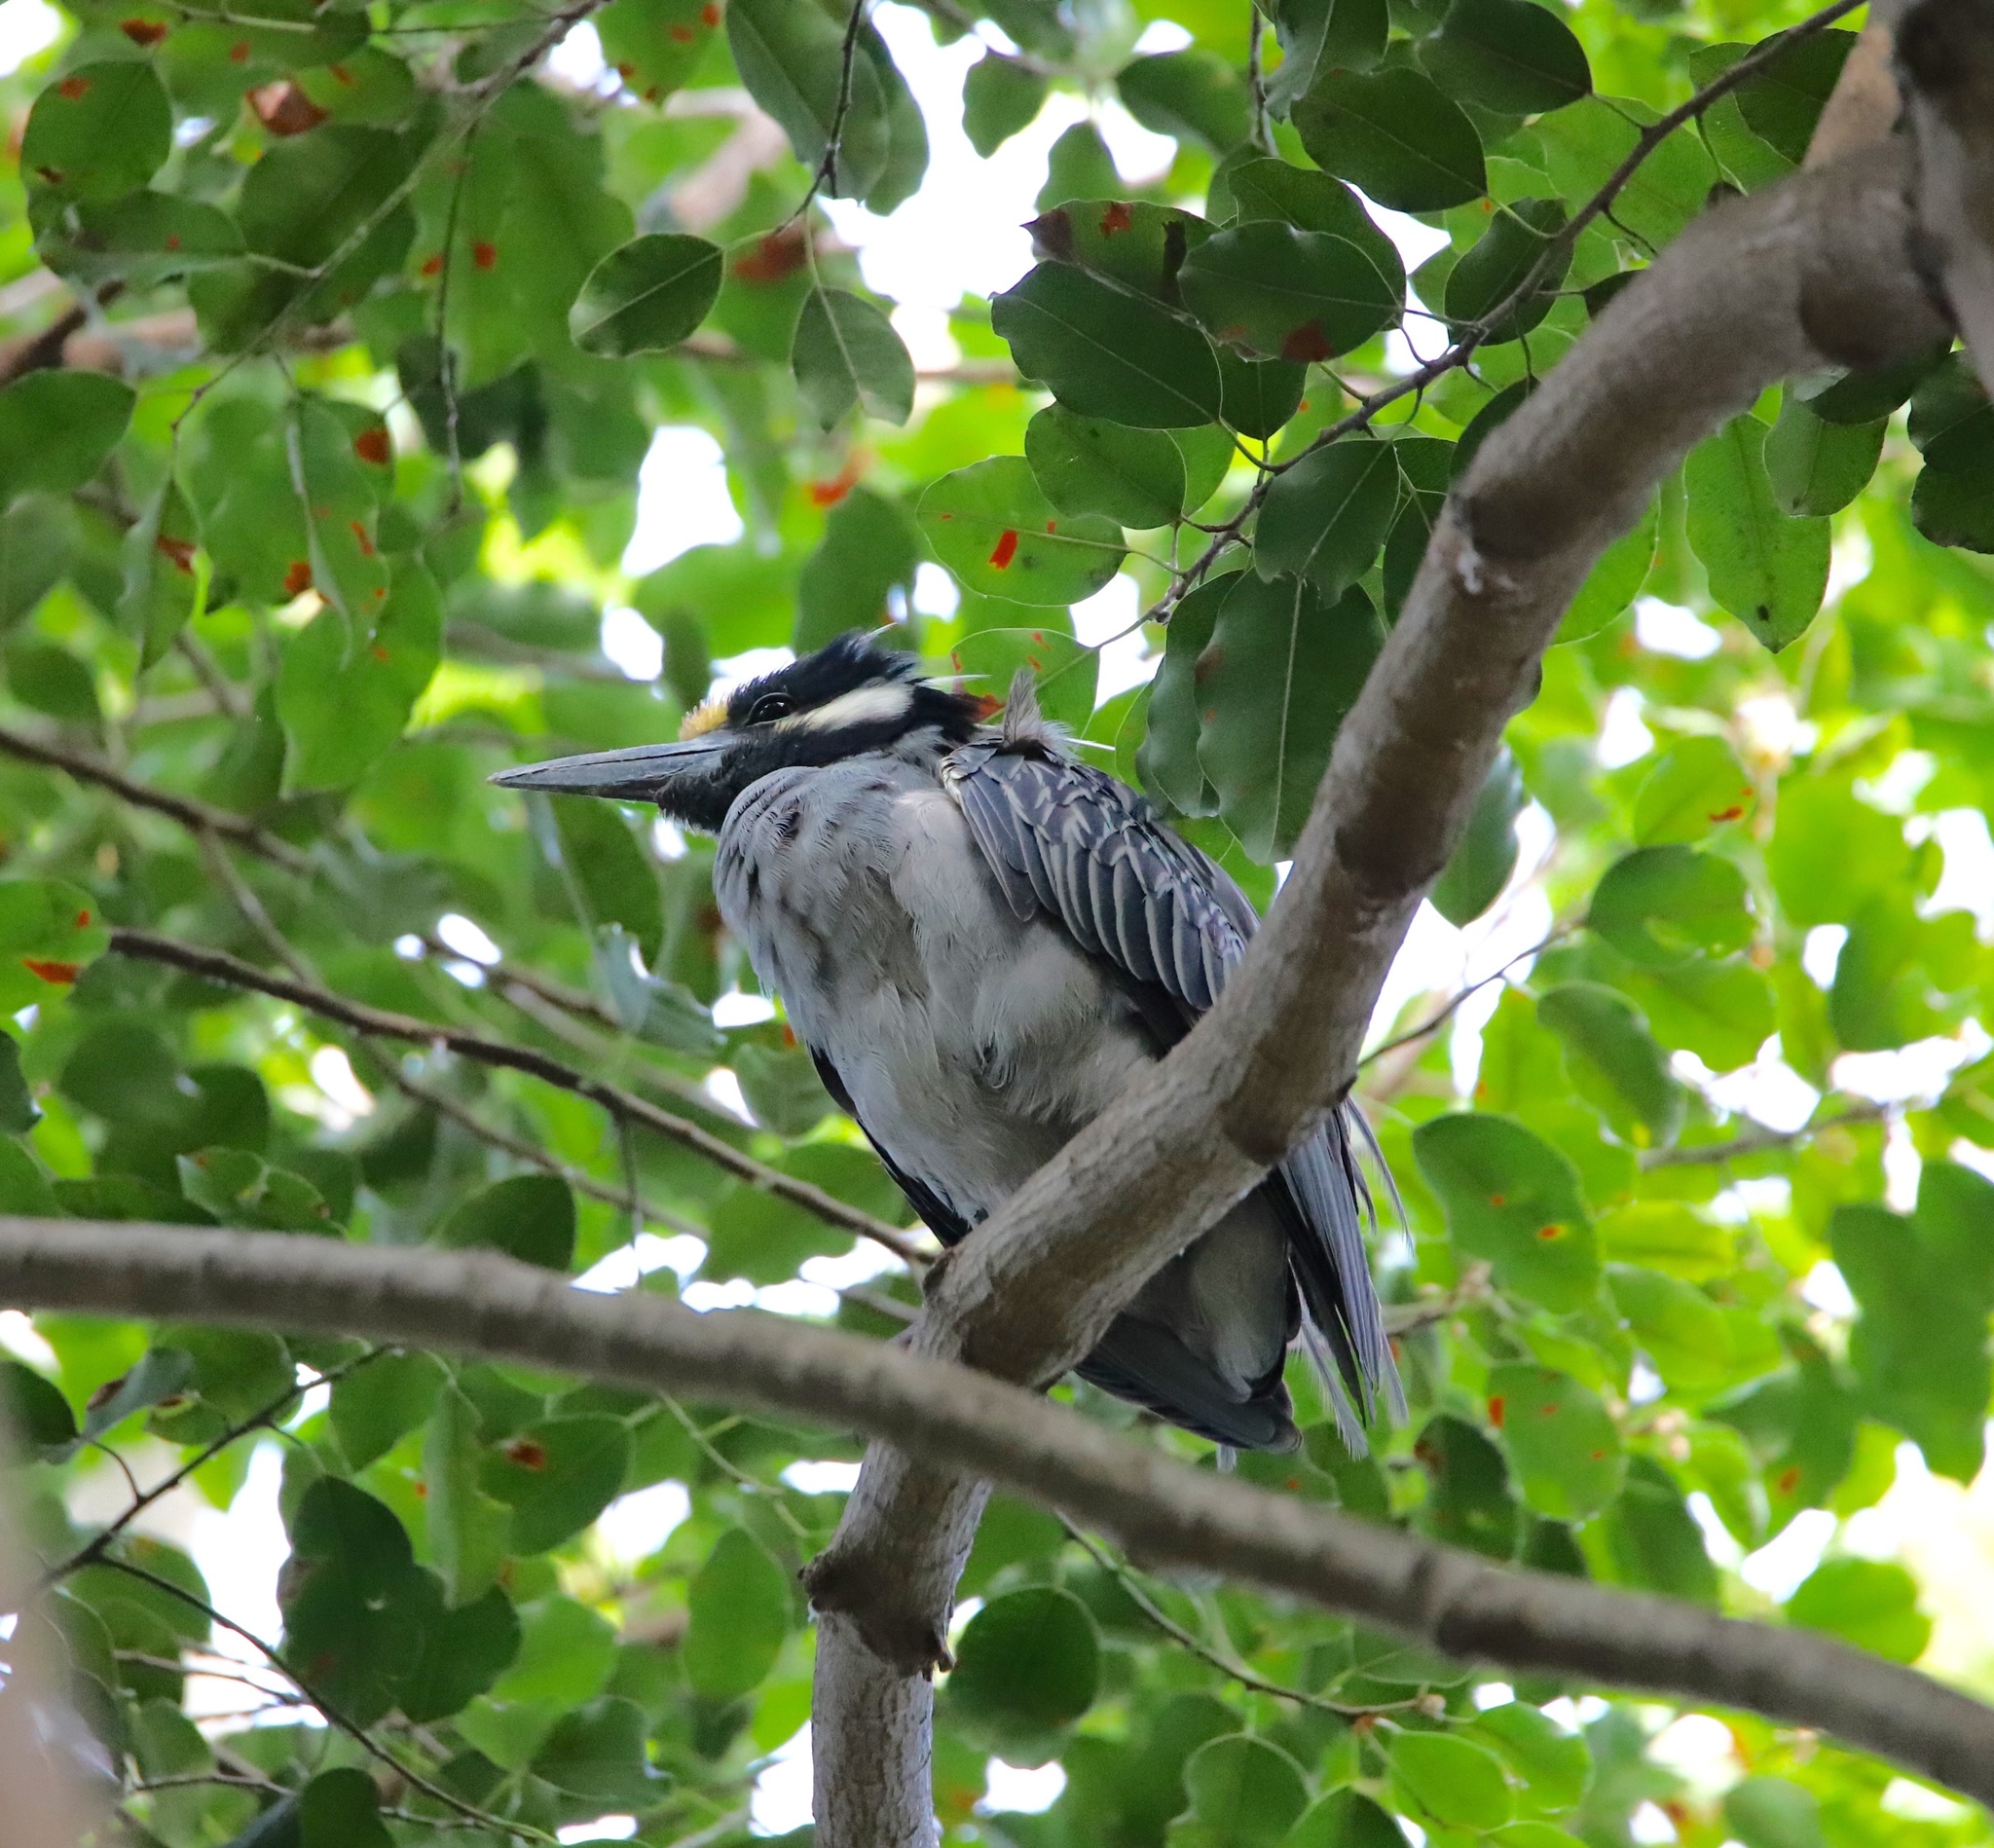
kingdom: Animalia
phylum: Chordata
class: Aves
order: Pelecaniformes
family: Ardeidae
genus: Nyctanassa
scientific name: Nyctanassa violacea
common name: Yellow-crowned night heron
